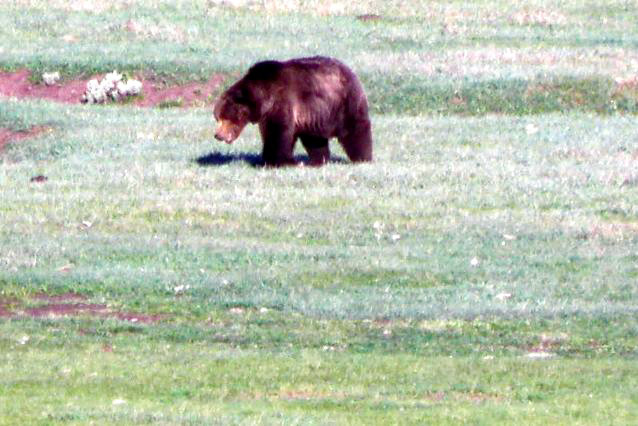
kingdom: Animalia
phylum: Chordata
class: Mammalia
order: Carnivora
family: Ursidae
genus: Ursus
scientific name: Ursus arctos
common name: Brown bear
